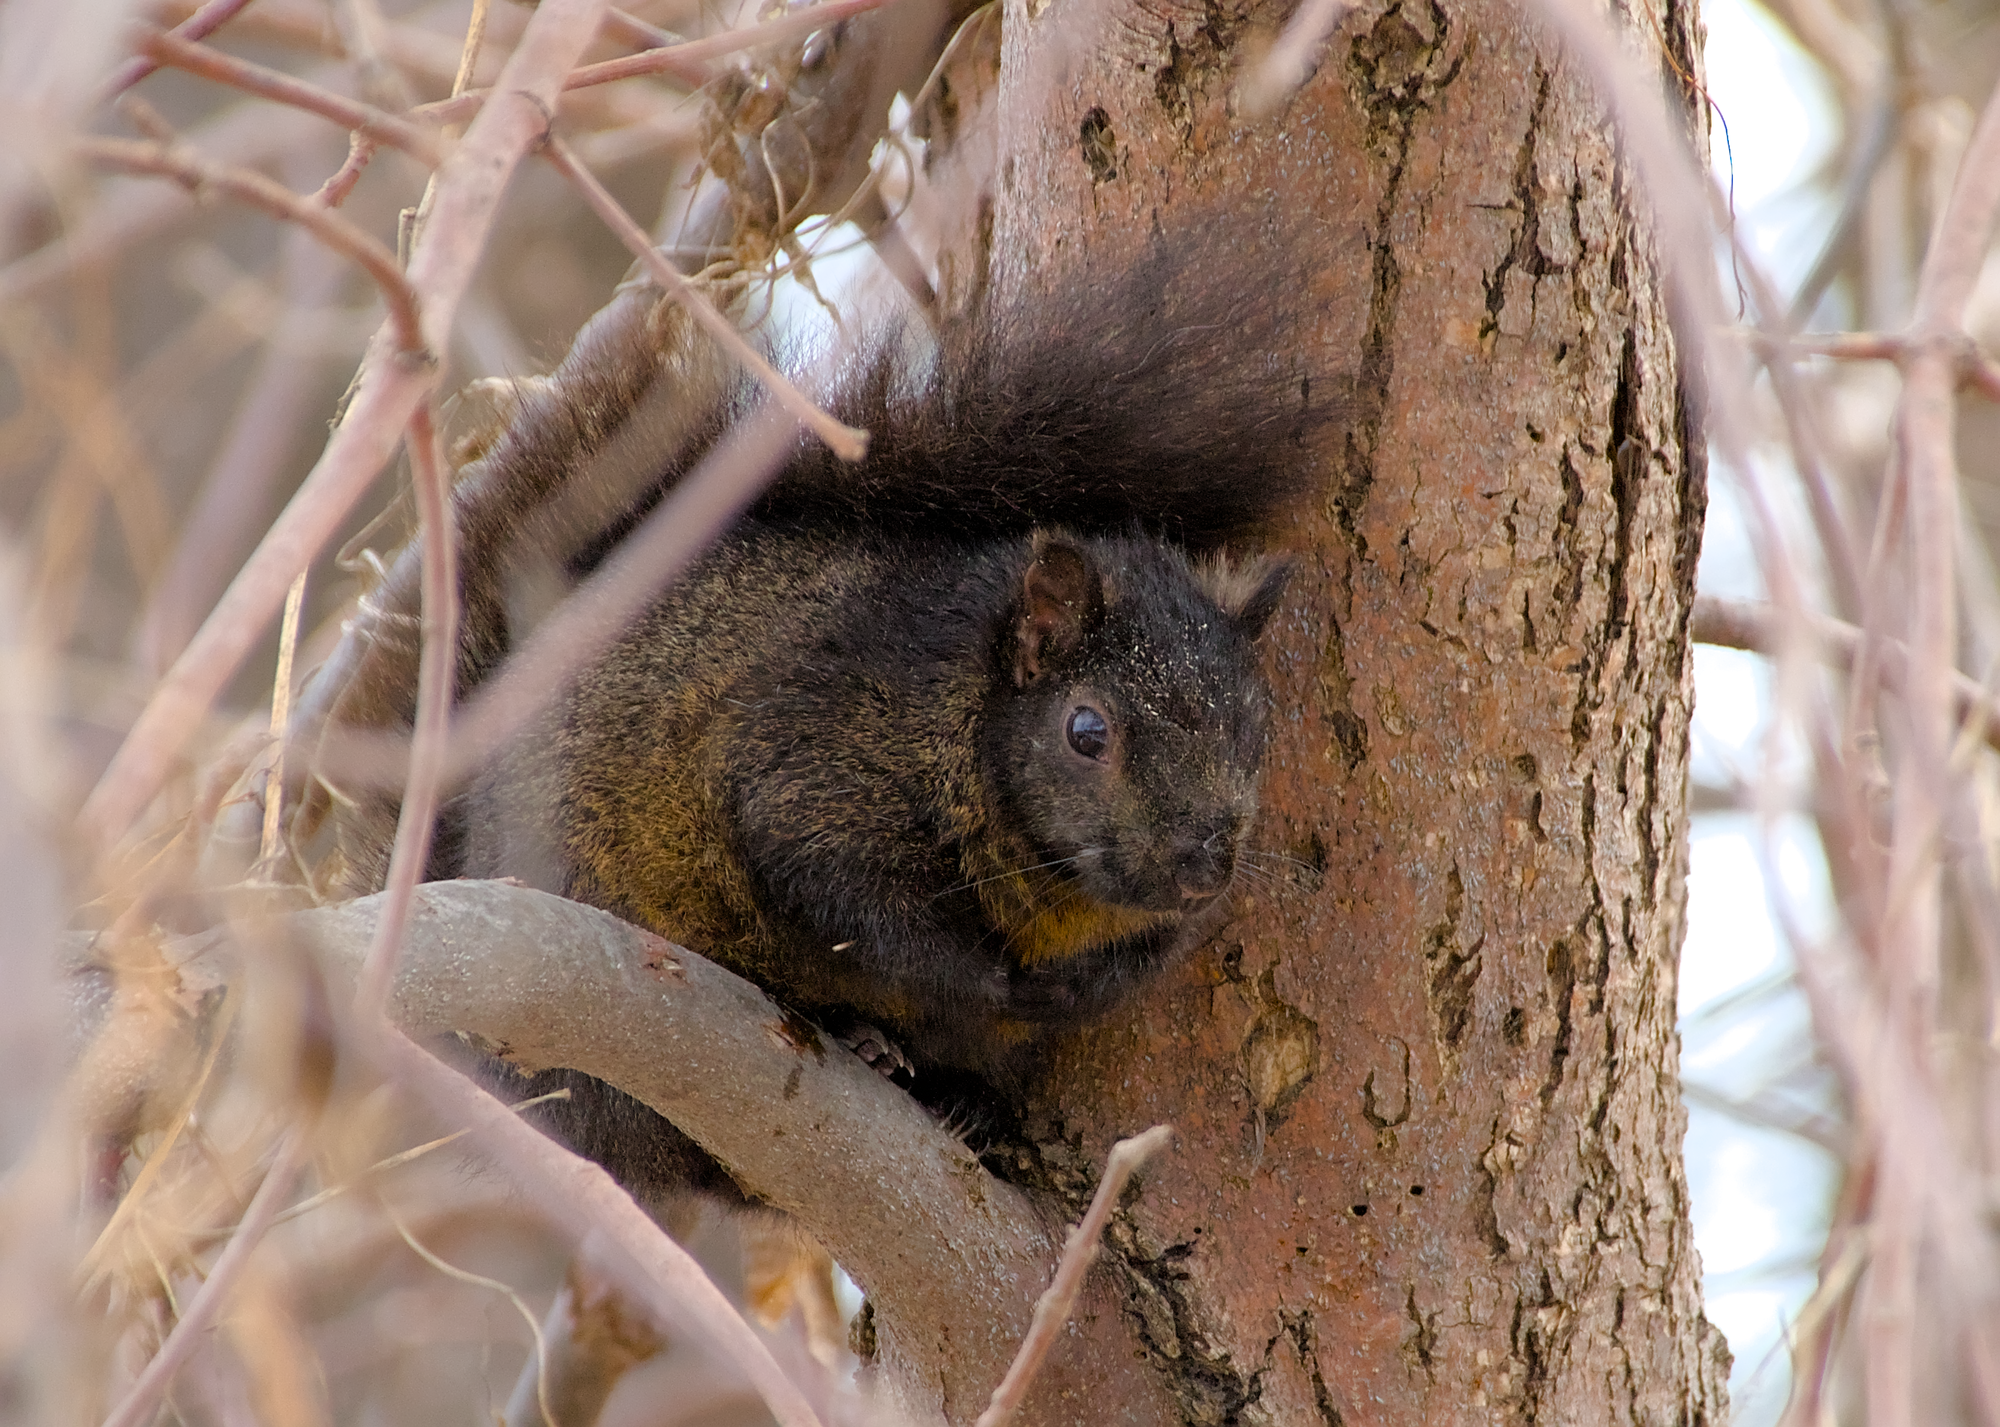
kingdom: Animalia
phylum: Chordata
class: Mammalia
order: Rodentia
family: Sciuridae
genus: Sciurus
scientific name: Sciurus carolinensis
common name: Eastern gray squirrel
